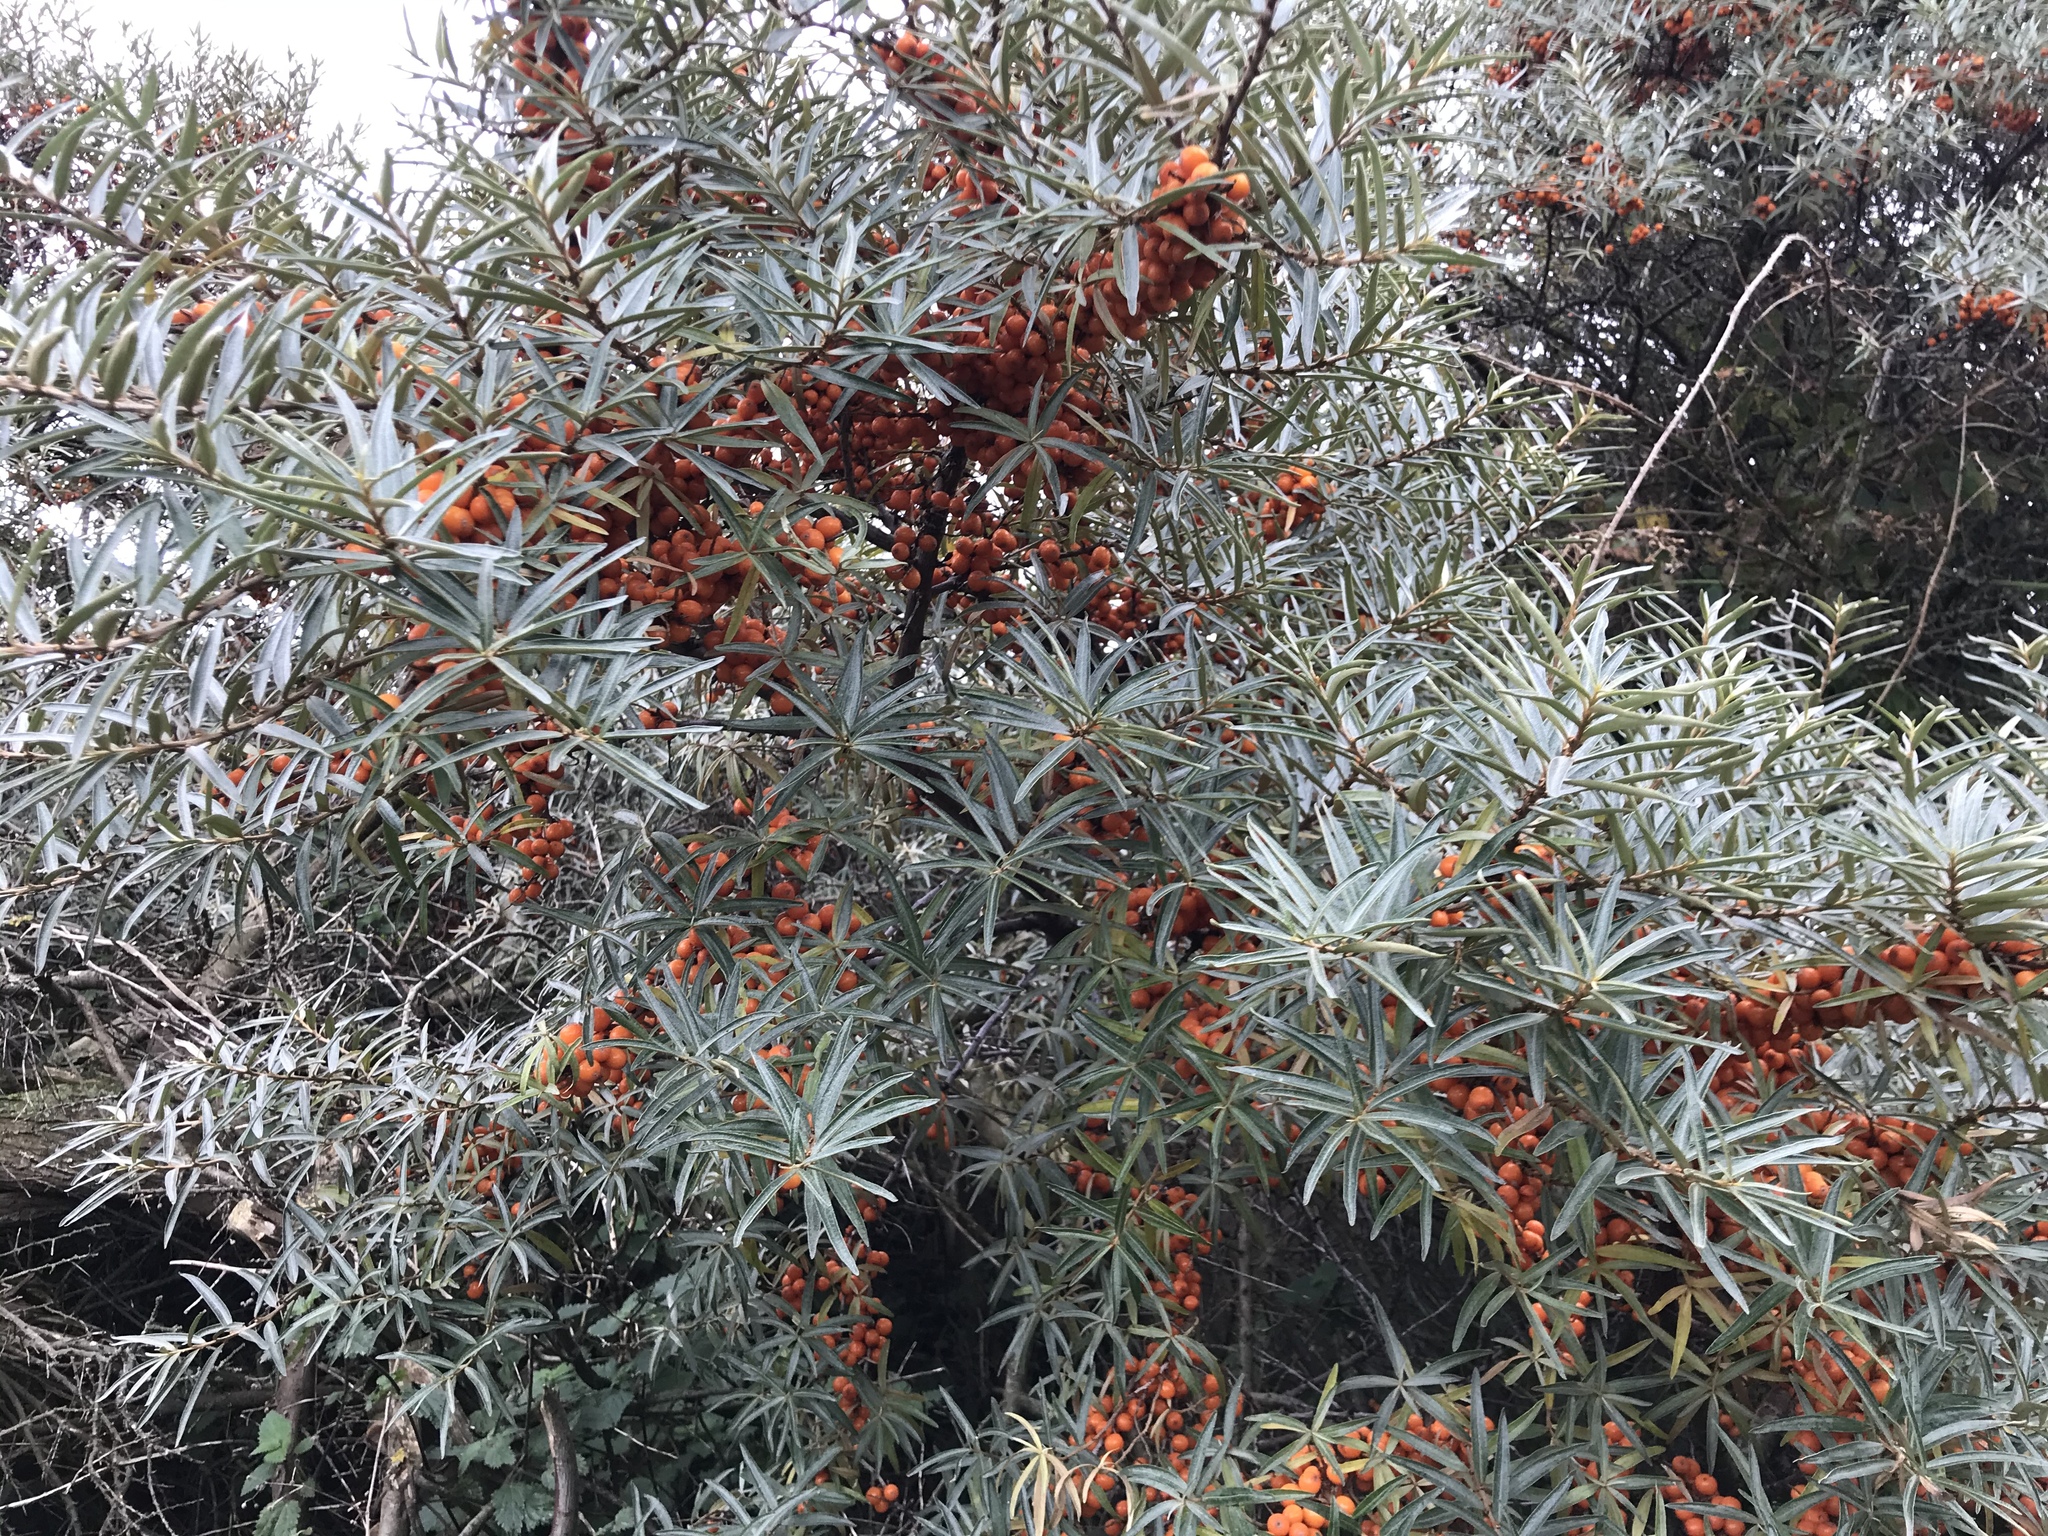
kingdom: Plantae
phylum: Tracheophyta
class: Magnoliopsida
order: Rosales
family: Elaeagnaceae
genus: Hippophae
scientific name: Hippophae rhamnoides
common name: Sea-buckthorn
